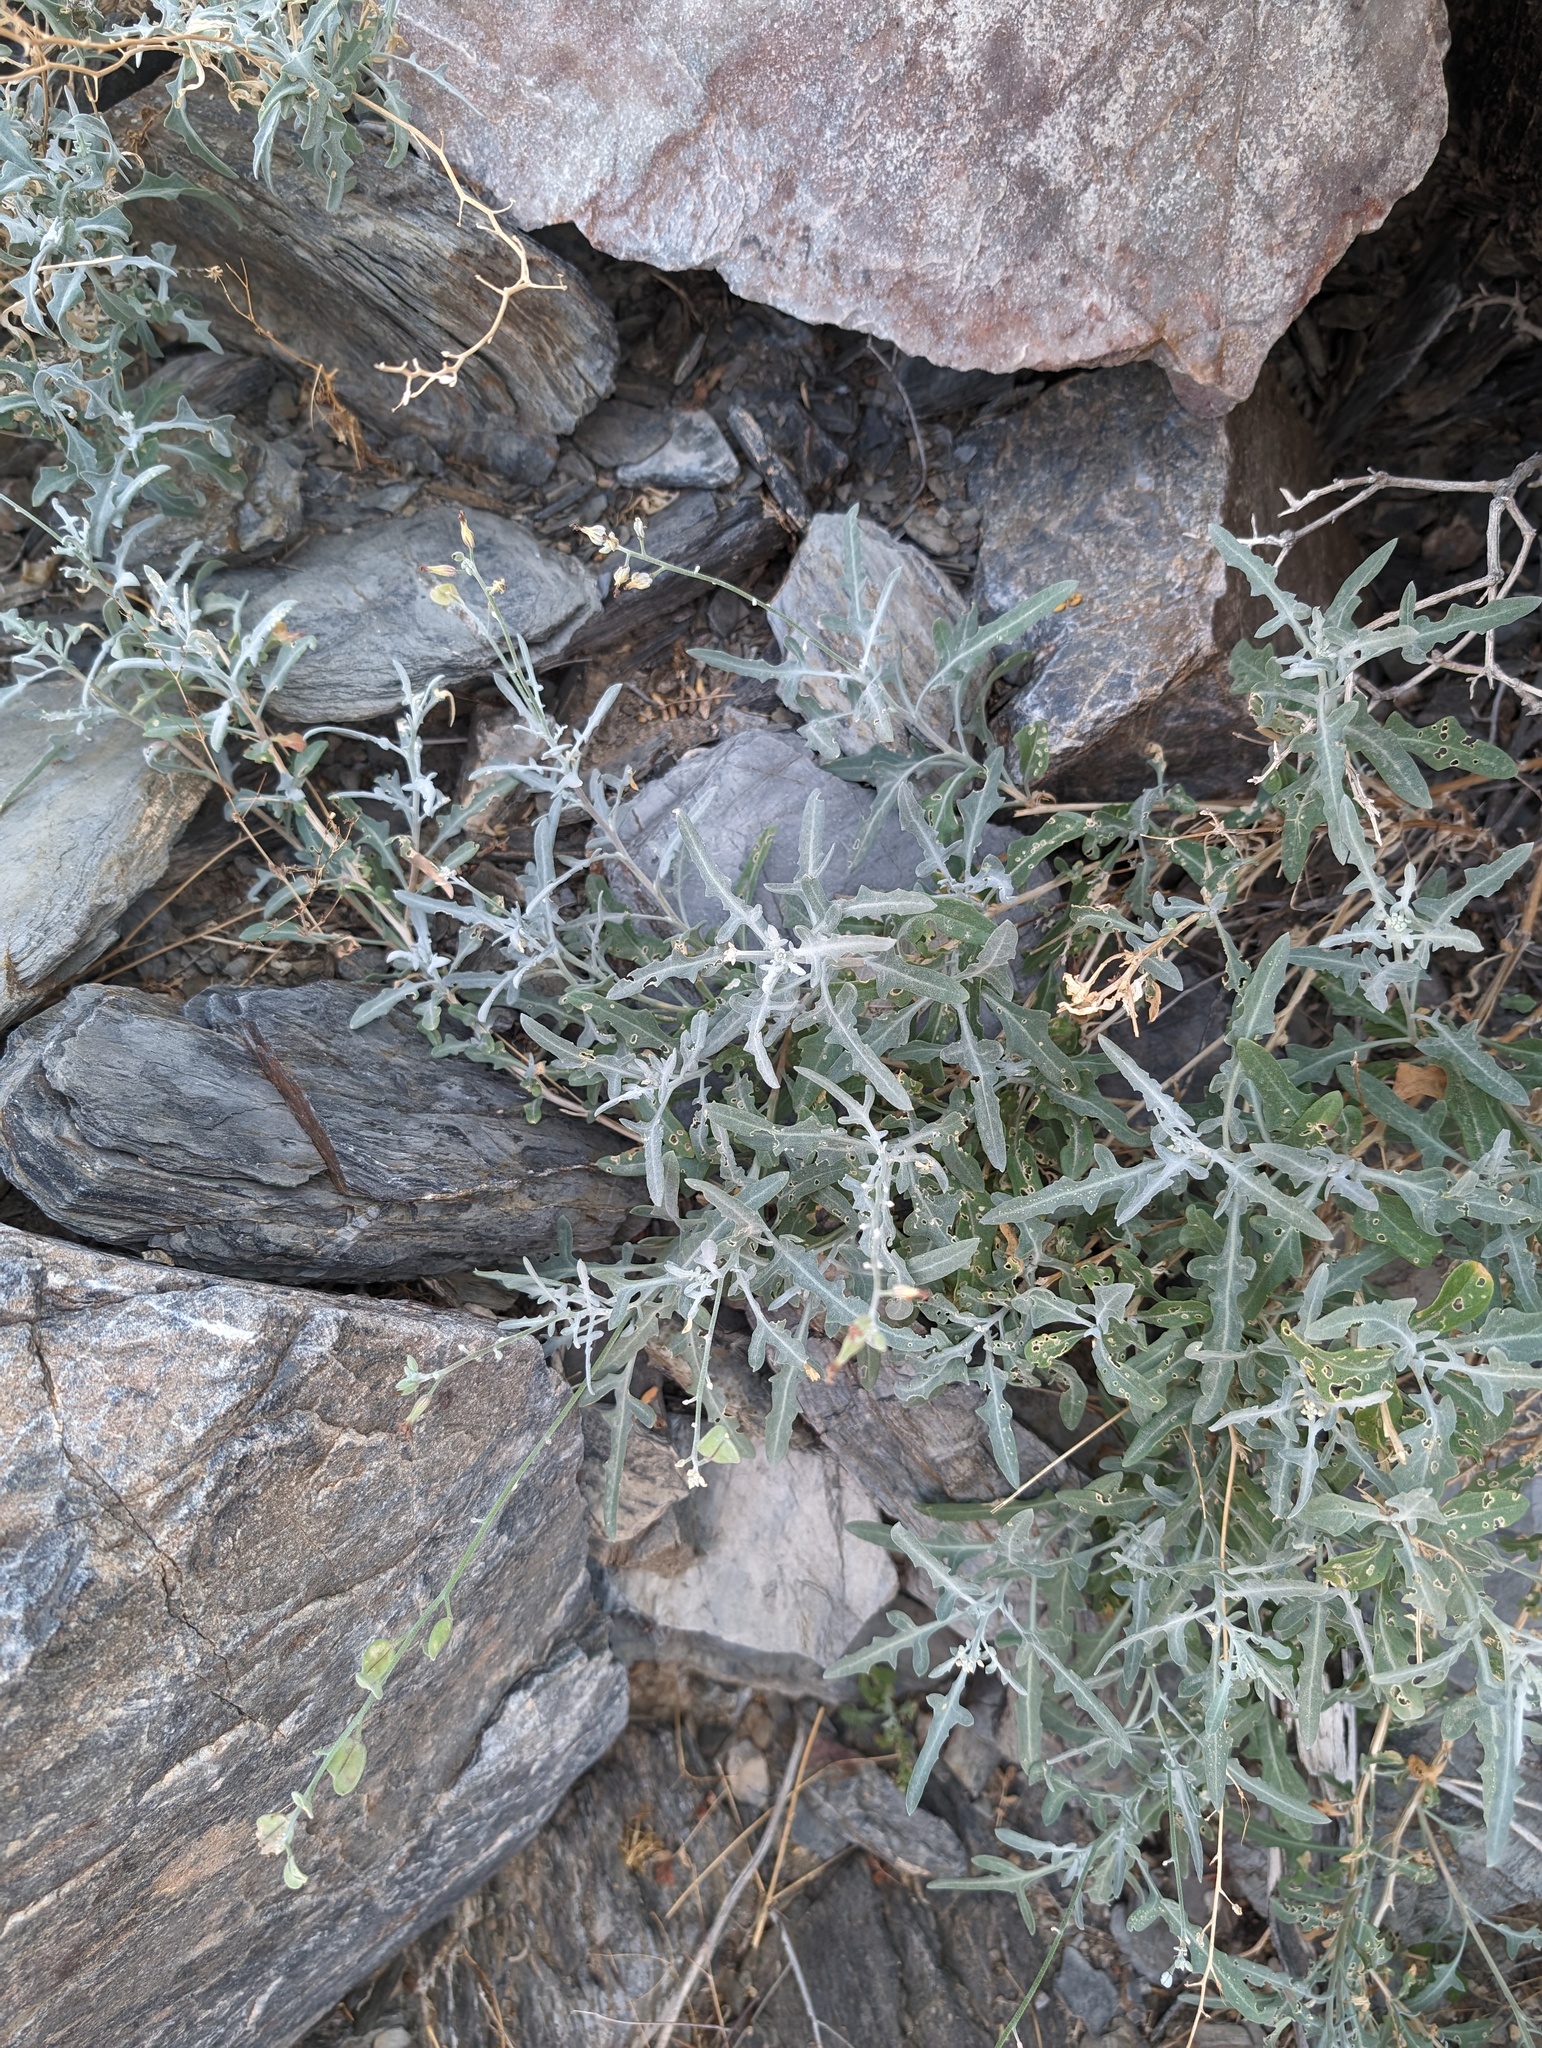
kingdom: Plantae
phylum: Tracheophyta
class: Magnoliopsida
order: Brassicales
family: Brassicaceae
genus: Lyrocarpa
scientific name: Lyrocarpa coulteri
